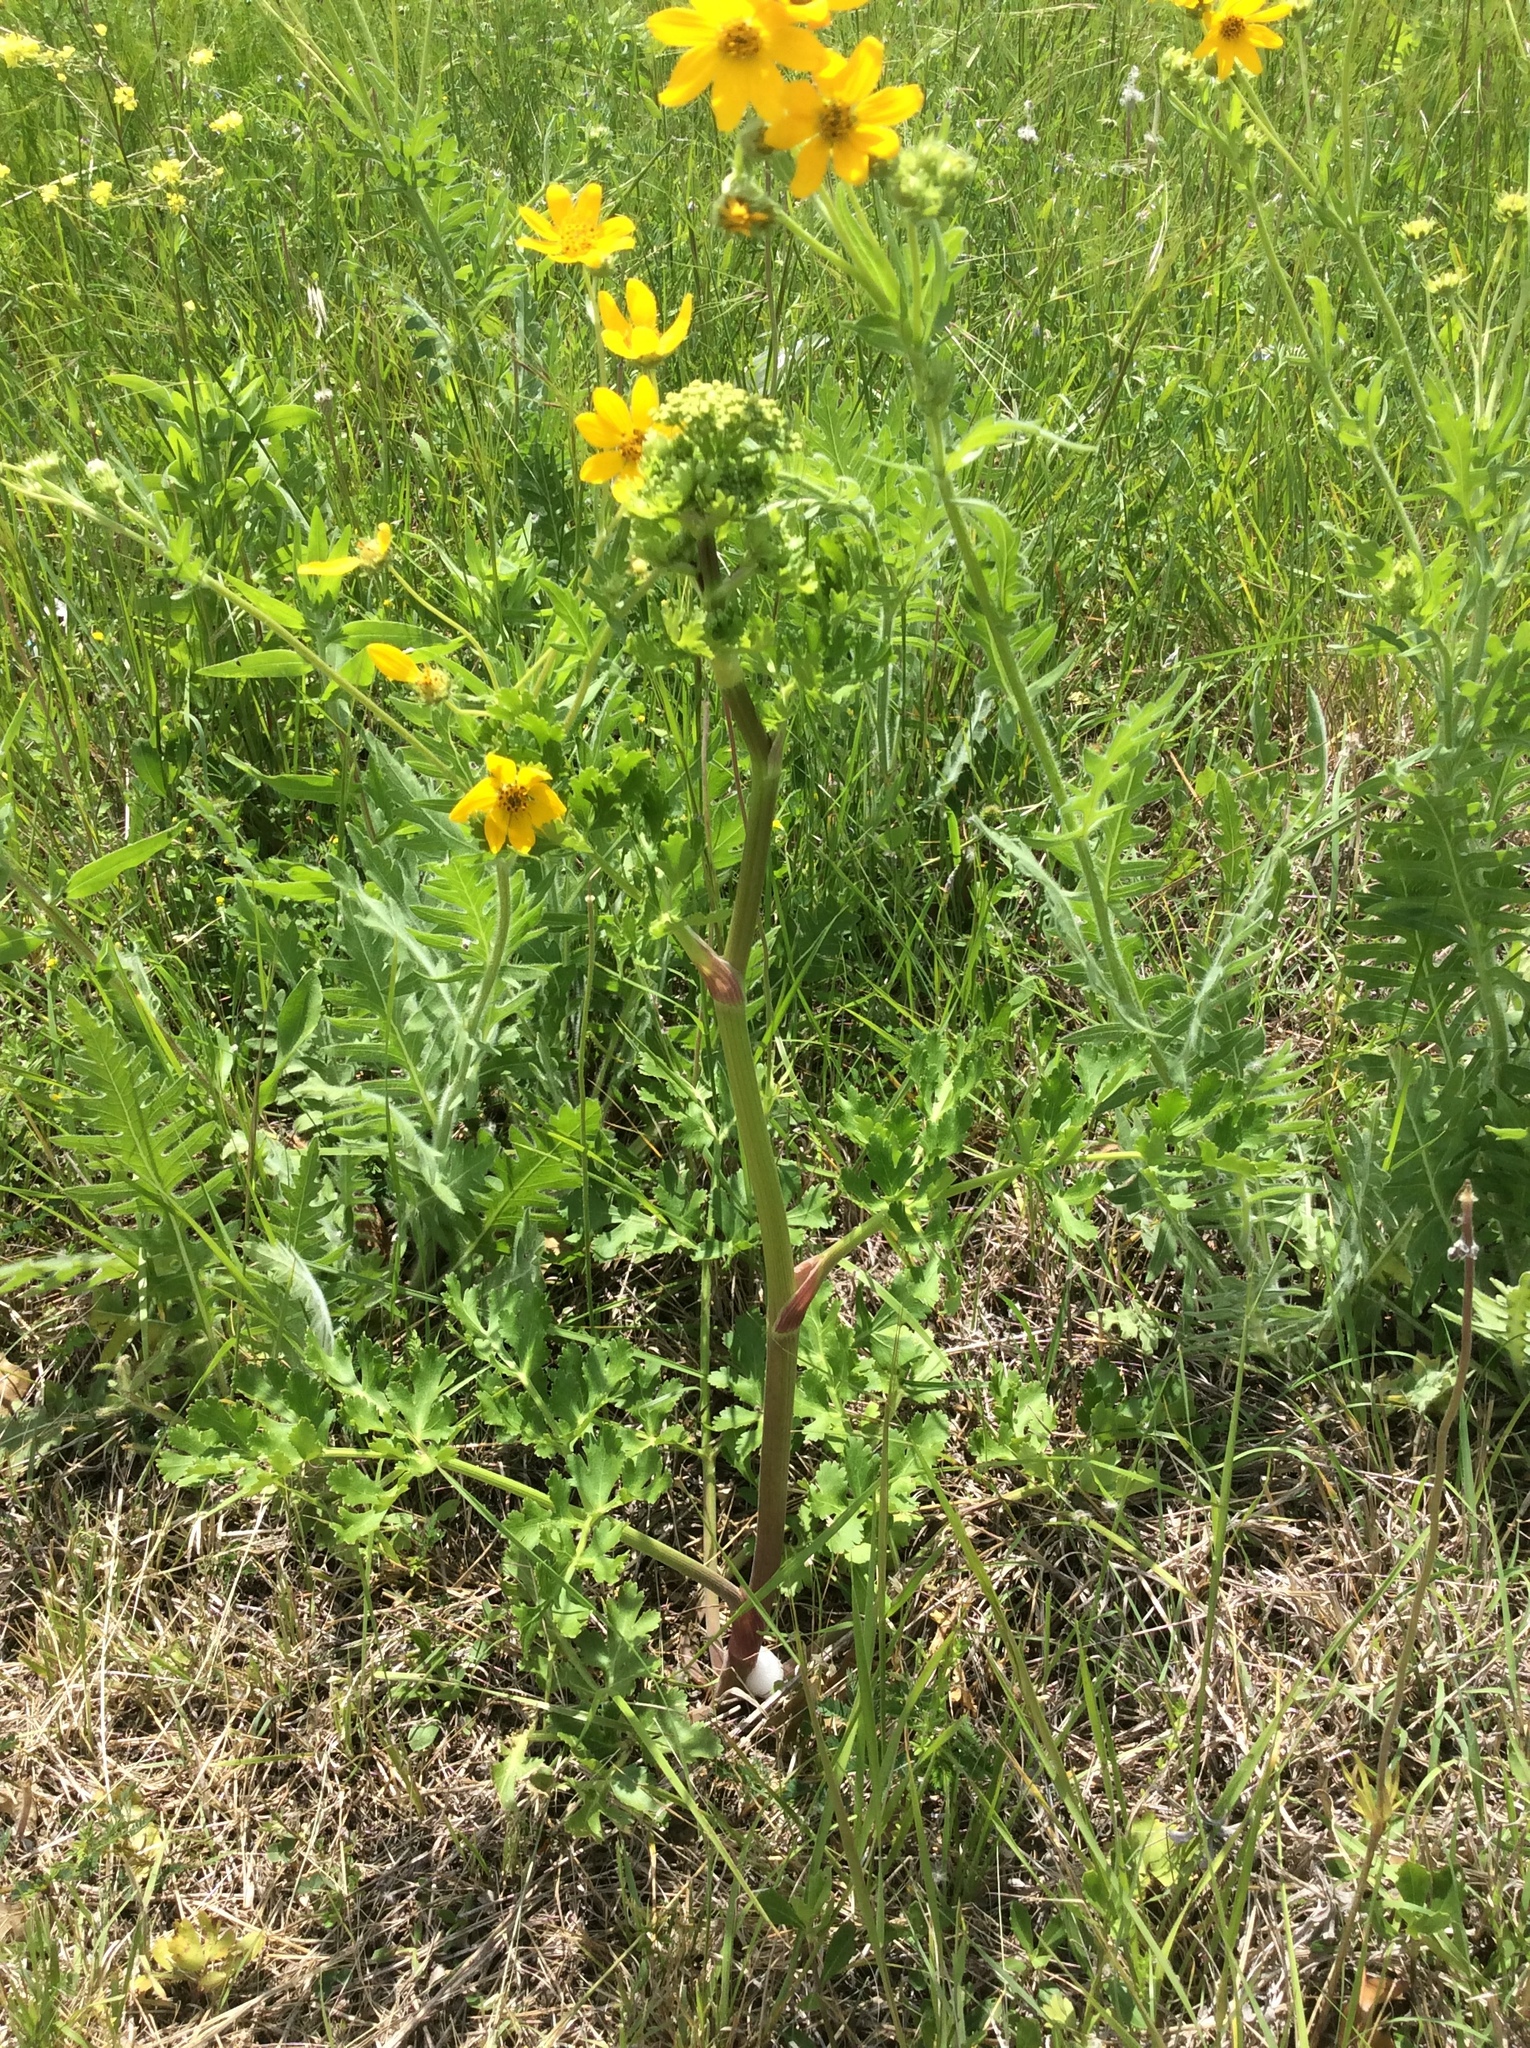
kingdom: Plantae
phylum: Tracheophyta
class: Magnoliopsida
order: Apiales
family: Apiaceae
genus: Polytaenia
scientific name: Polytaenia texana
